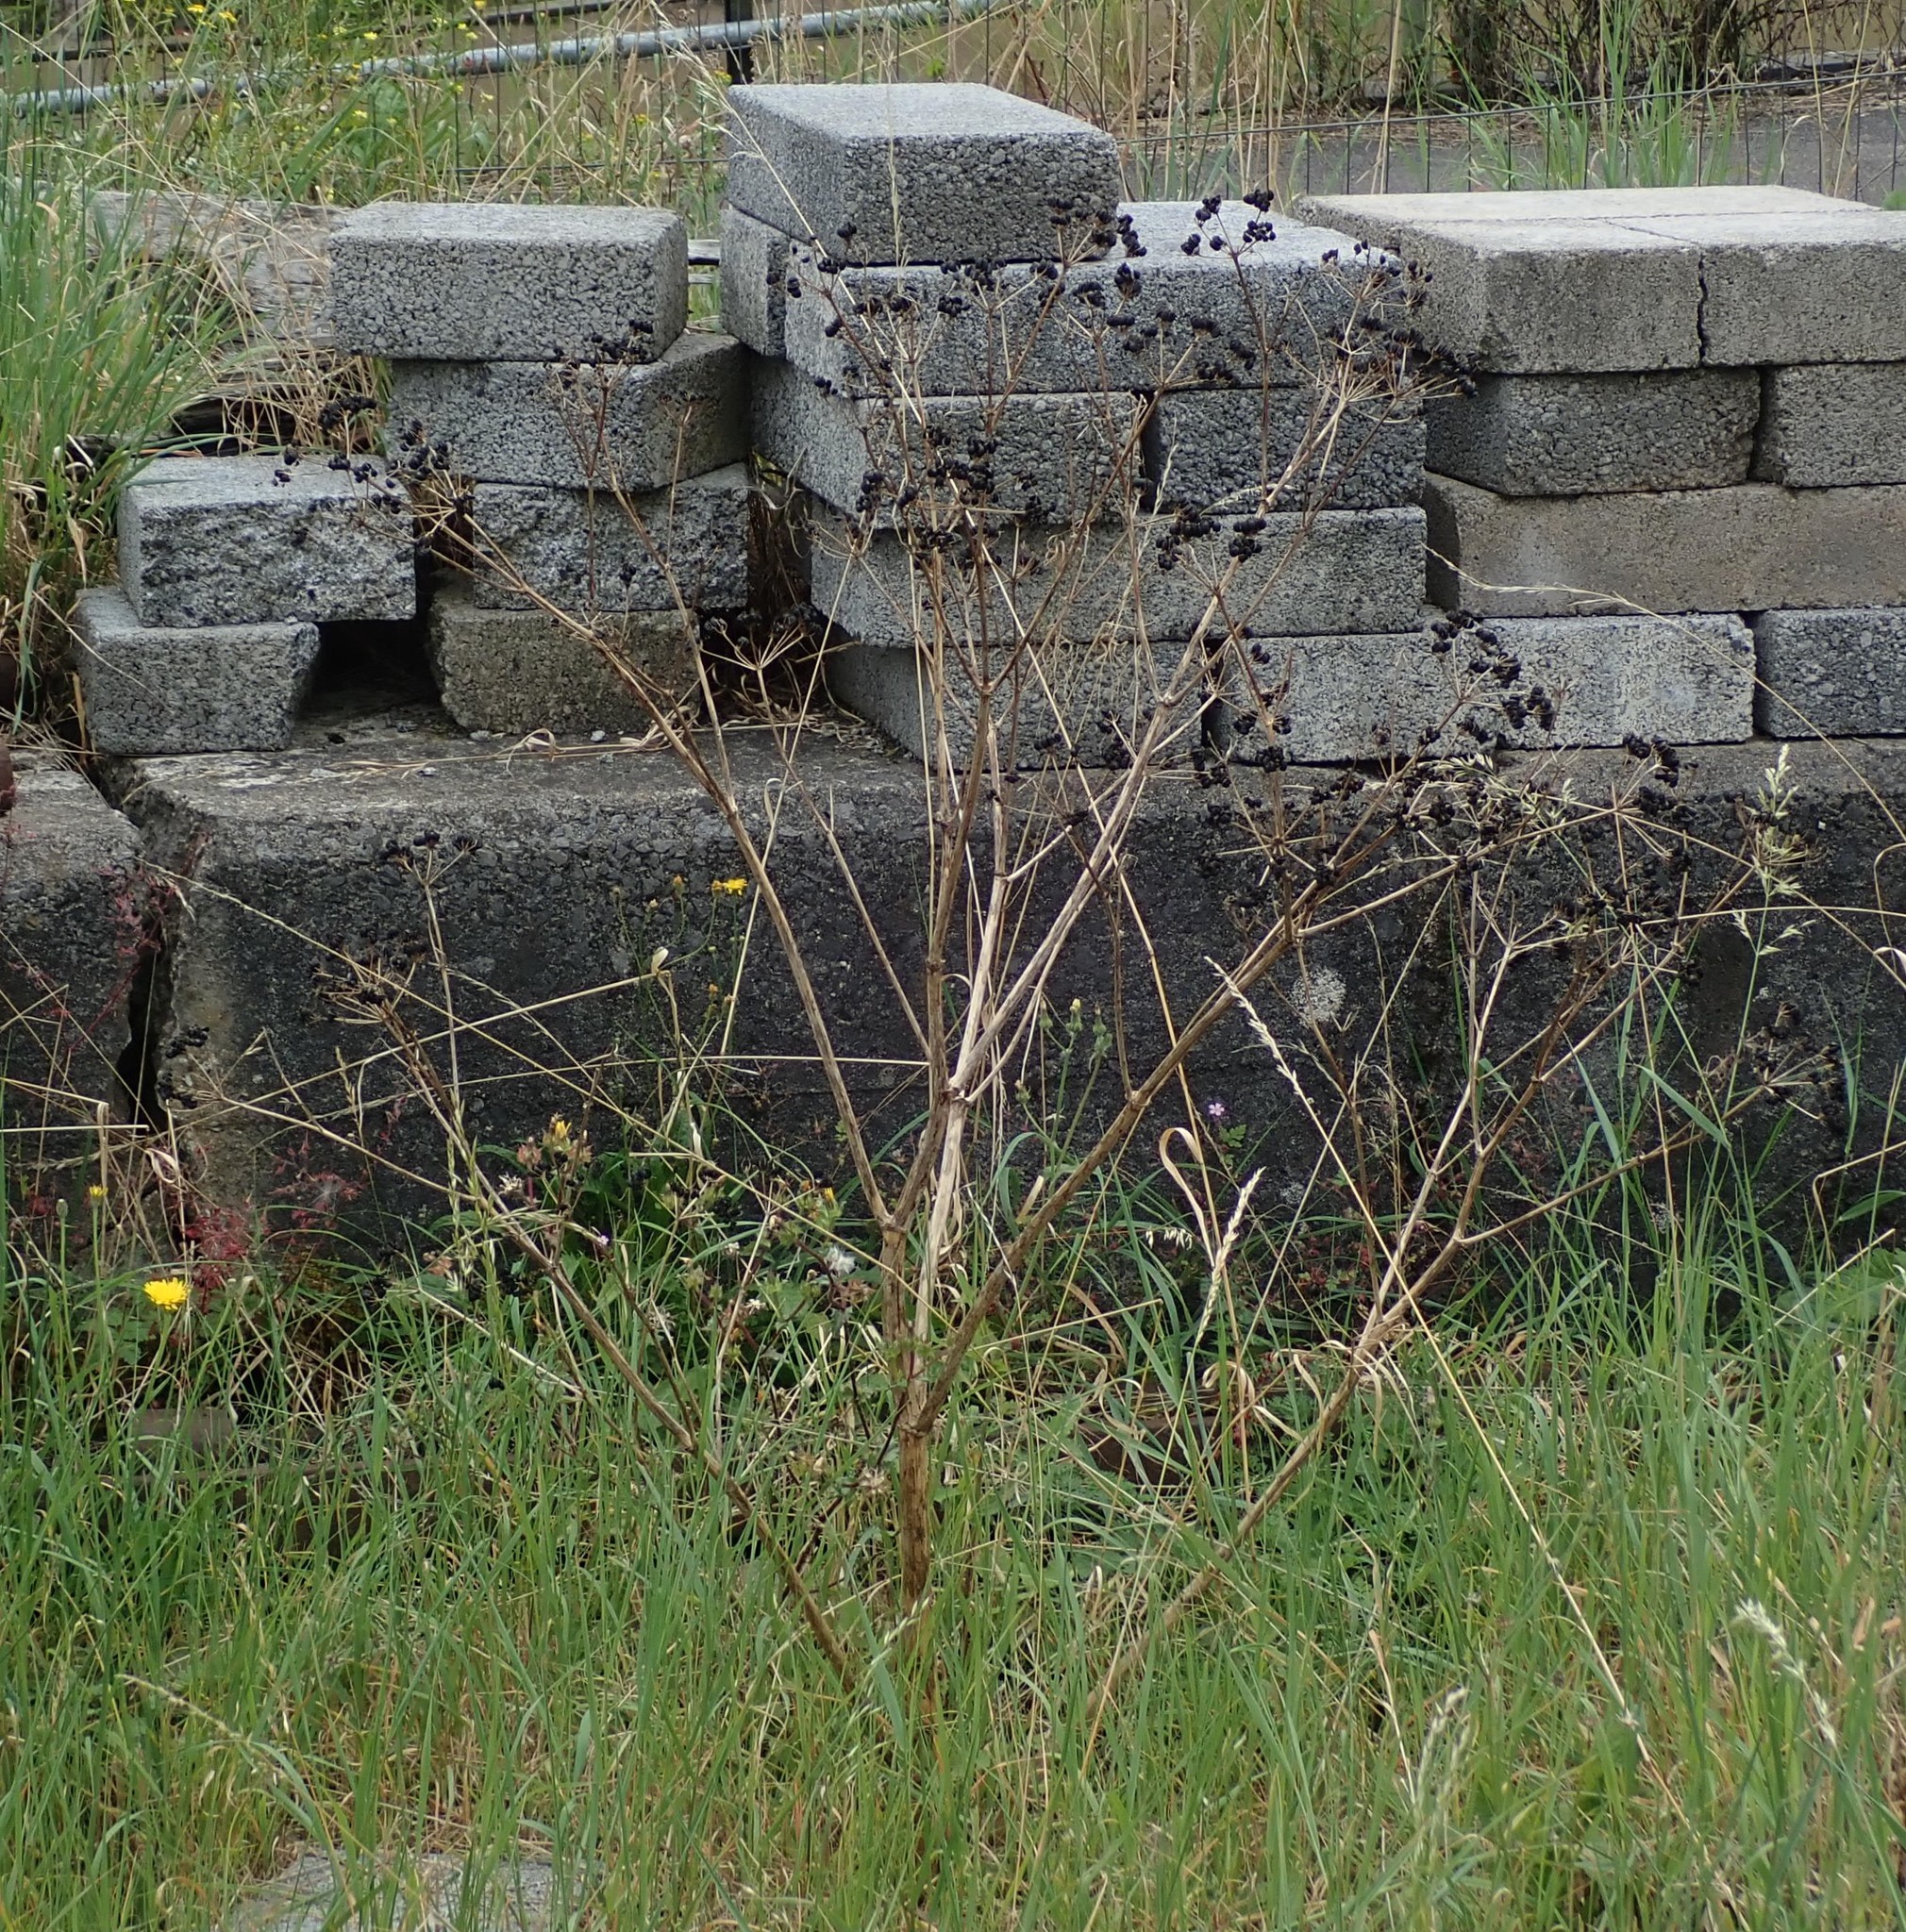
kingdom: Plantae
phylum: Tracheophyta
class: Magnoliopsida
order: Apiales
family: Apiaceae
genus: Smyrnium
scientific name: Smyrnium olusatrum
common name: Alexanders
